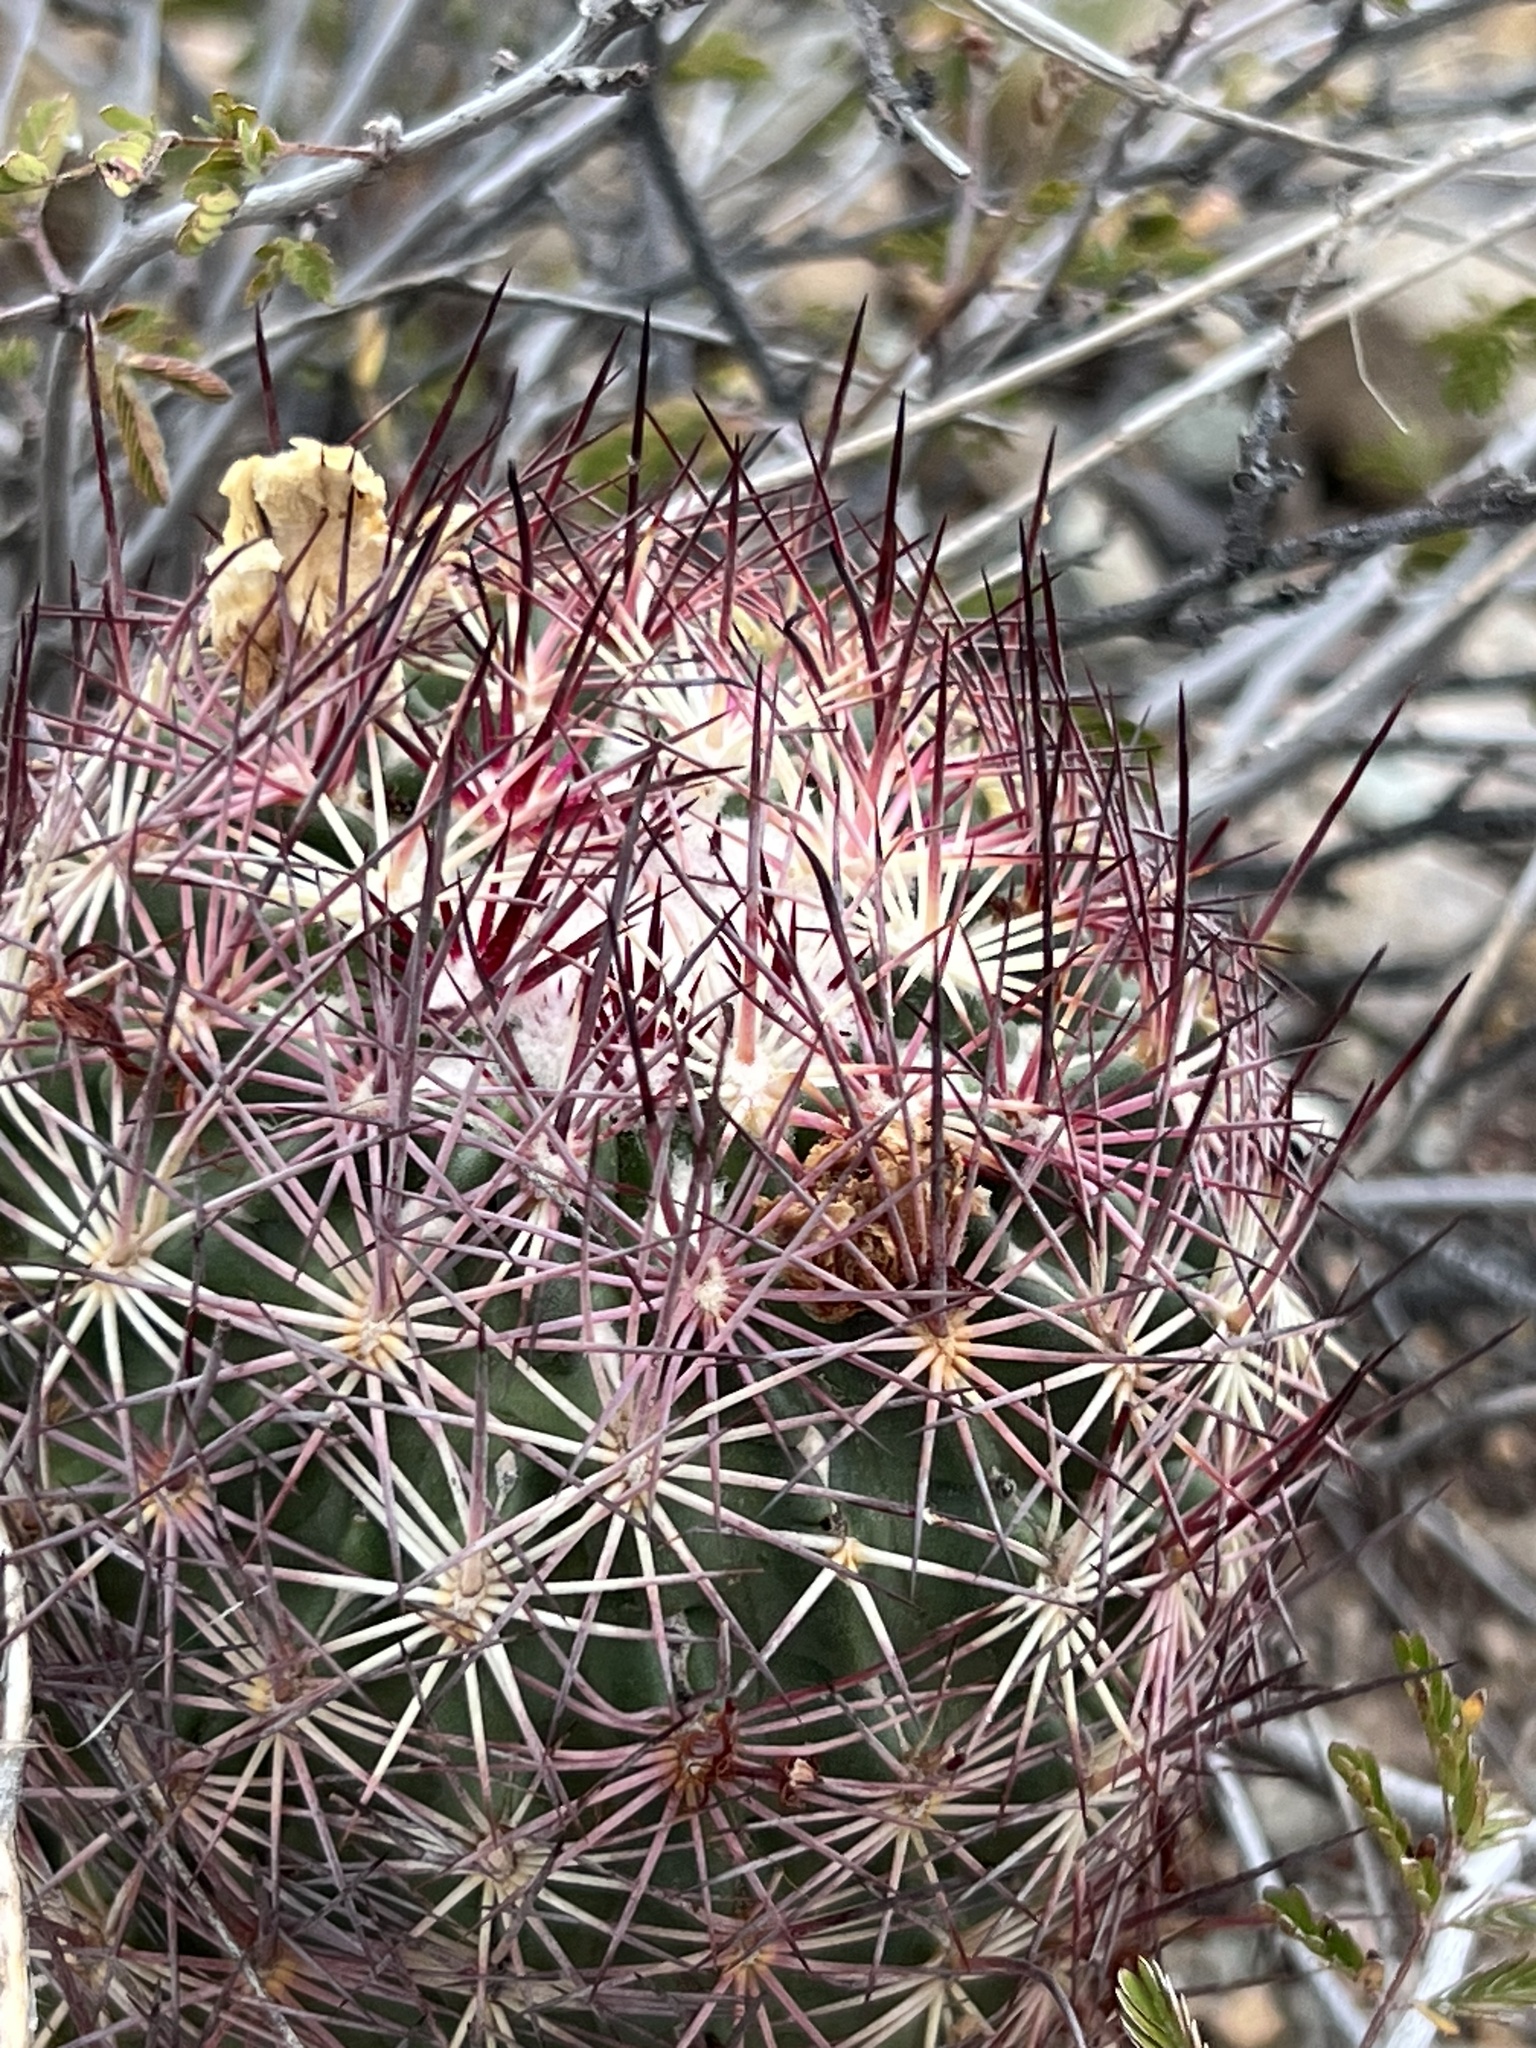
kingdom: Plantae
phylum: Tracheophyta
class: Magnoliopsida
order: Caryophyllales
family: Cactaceae
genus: Sclerocactus
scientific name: Sclerocactus johnsonii
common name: Eight-spine fishhook cactus
